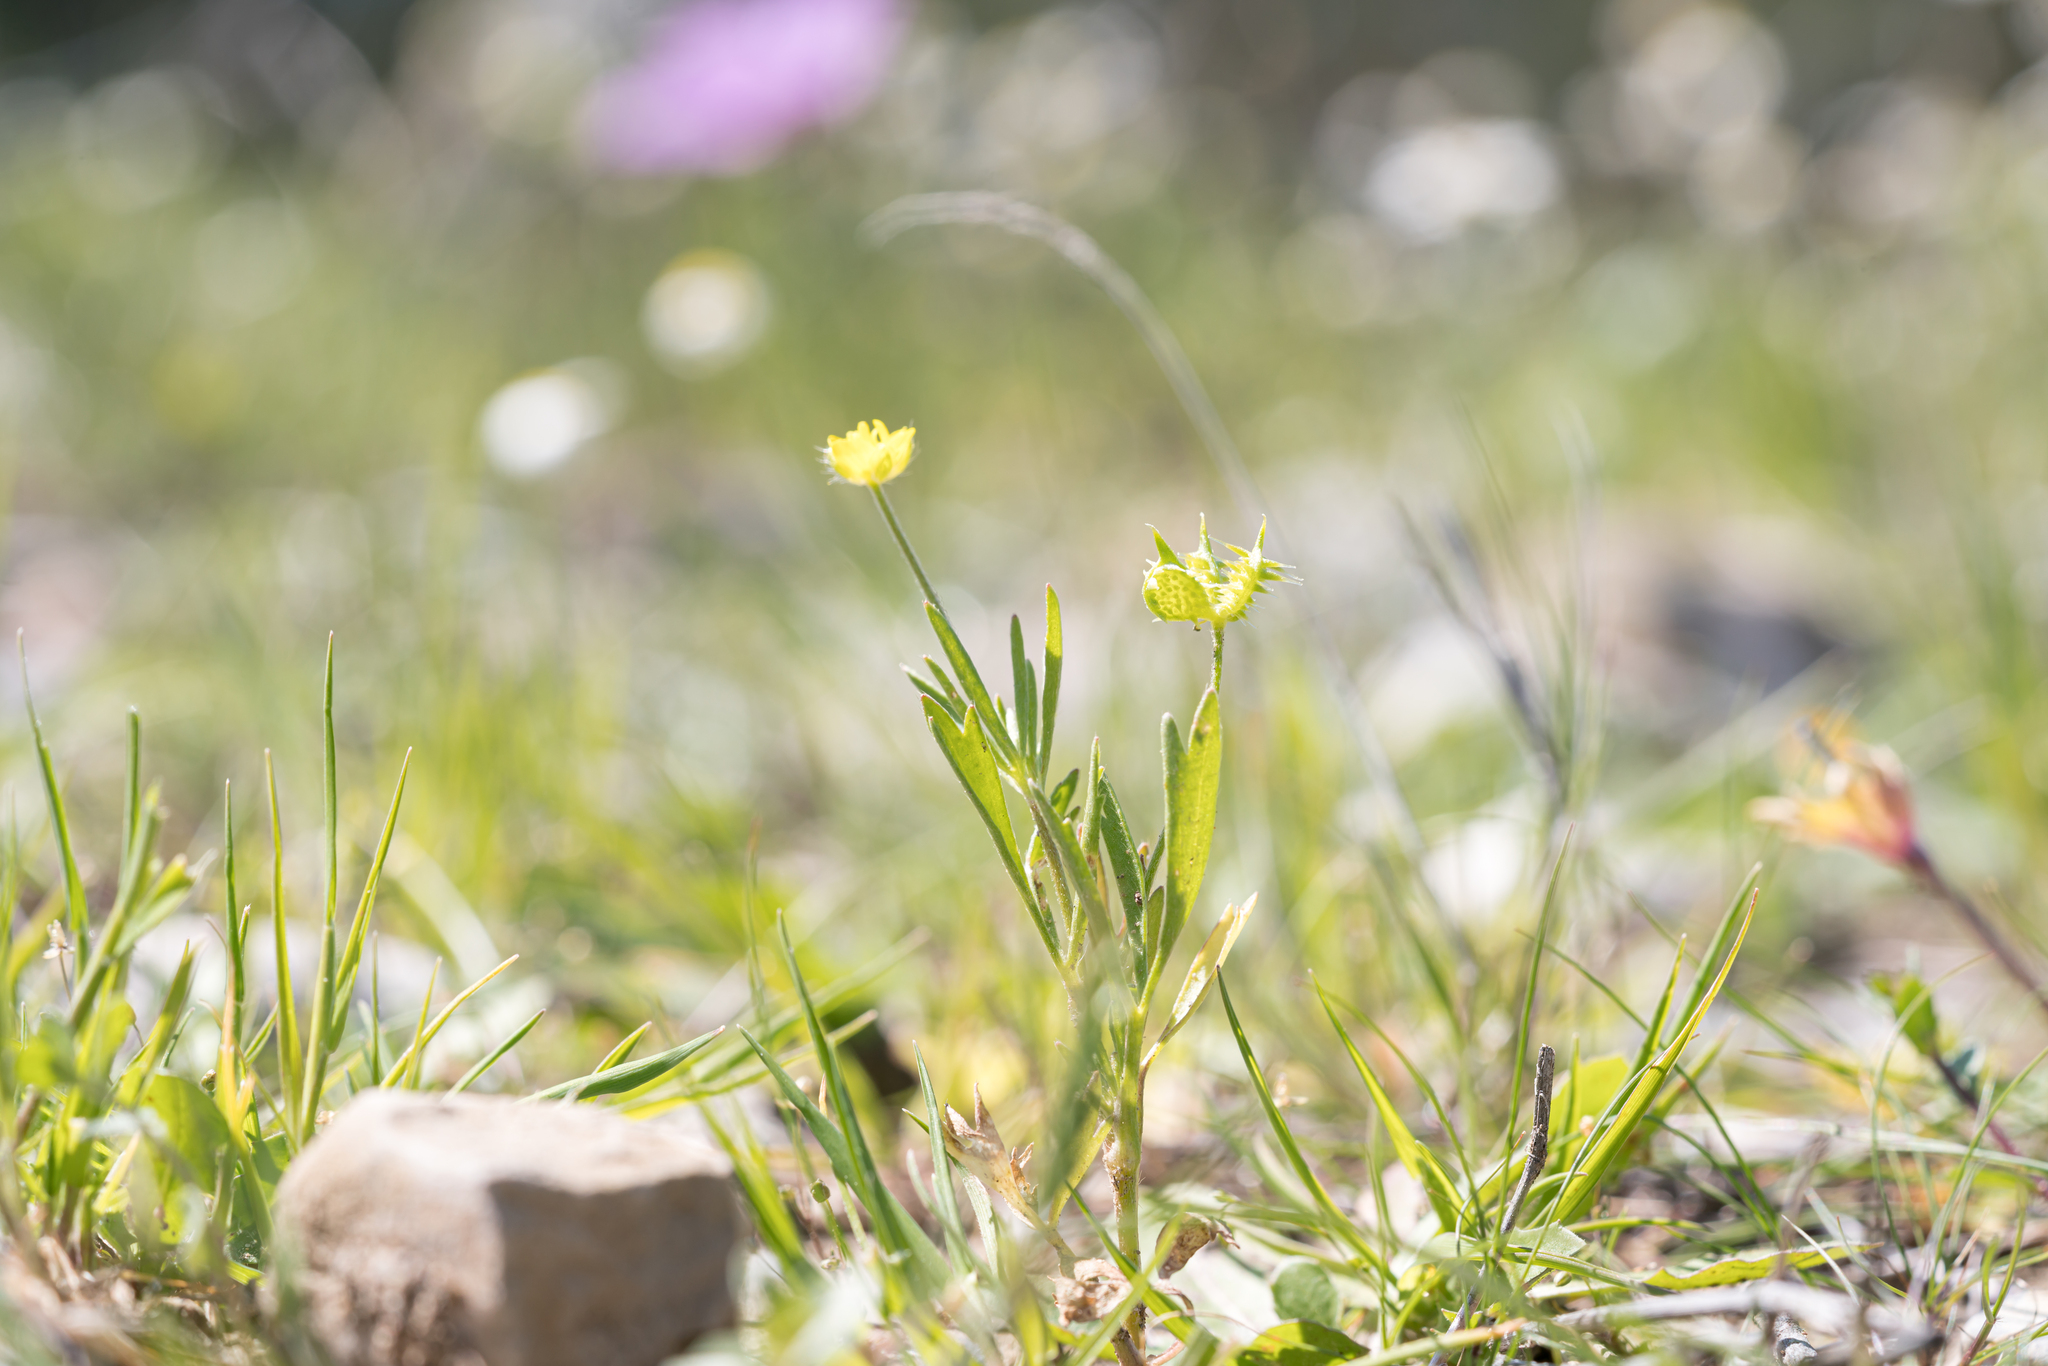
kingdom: Plantae
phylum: Tracheophyta
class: Magnoliopsida
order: Ranunculales
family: Ranunculaceae
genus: Ranunculus
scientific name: Ranunculus arvensis
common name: Corn buttercup
